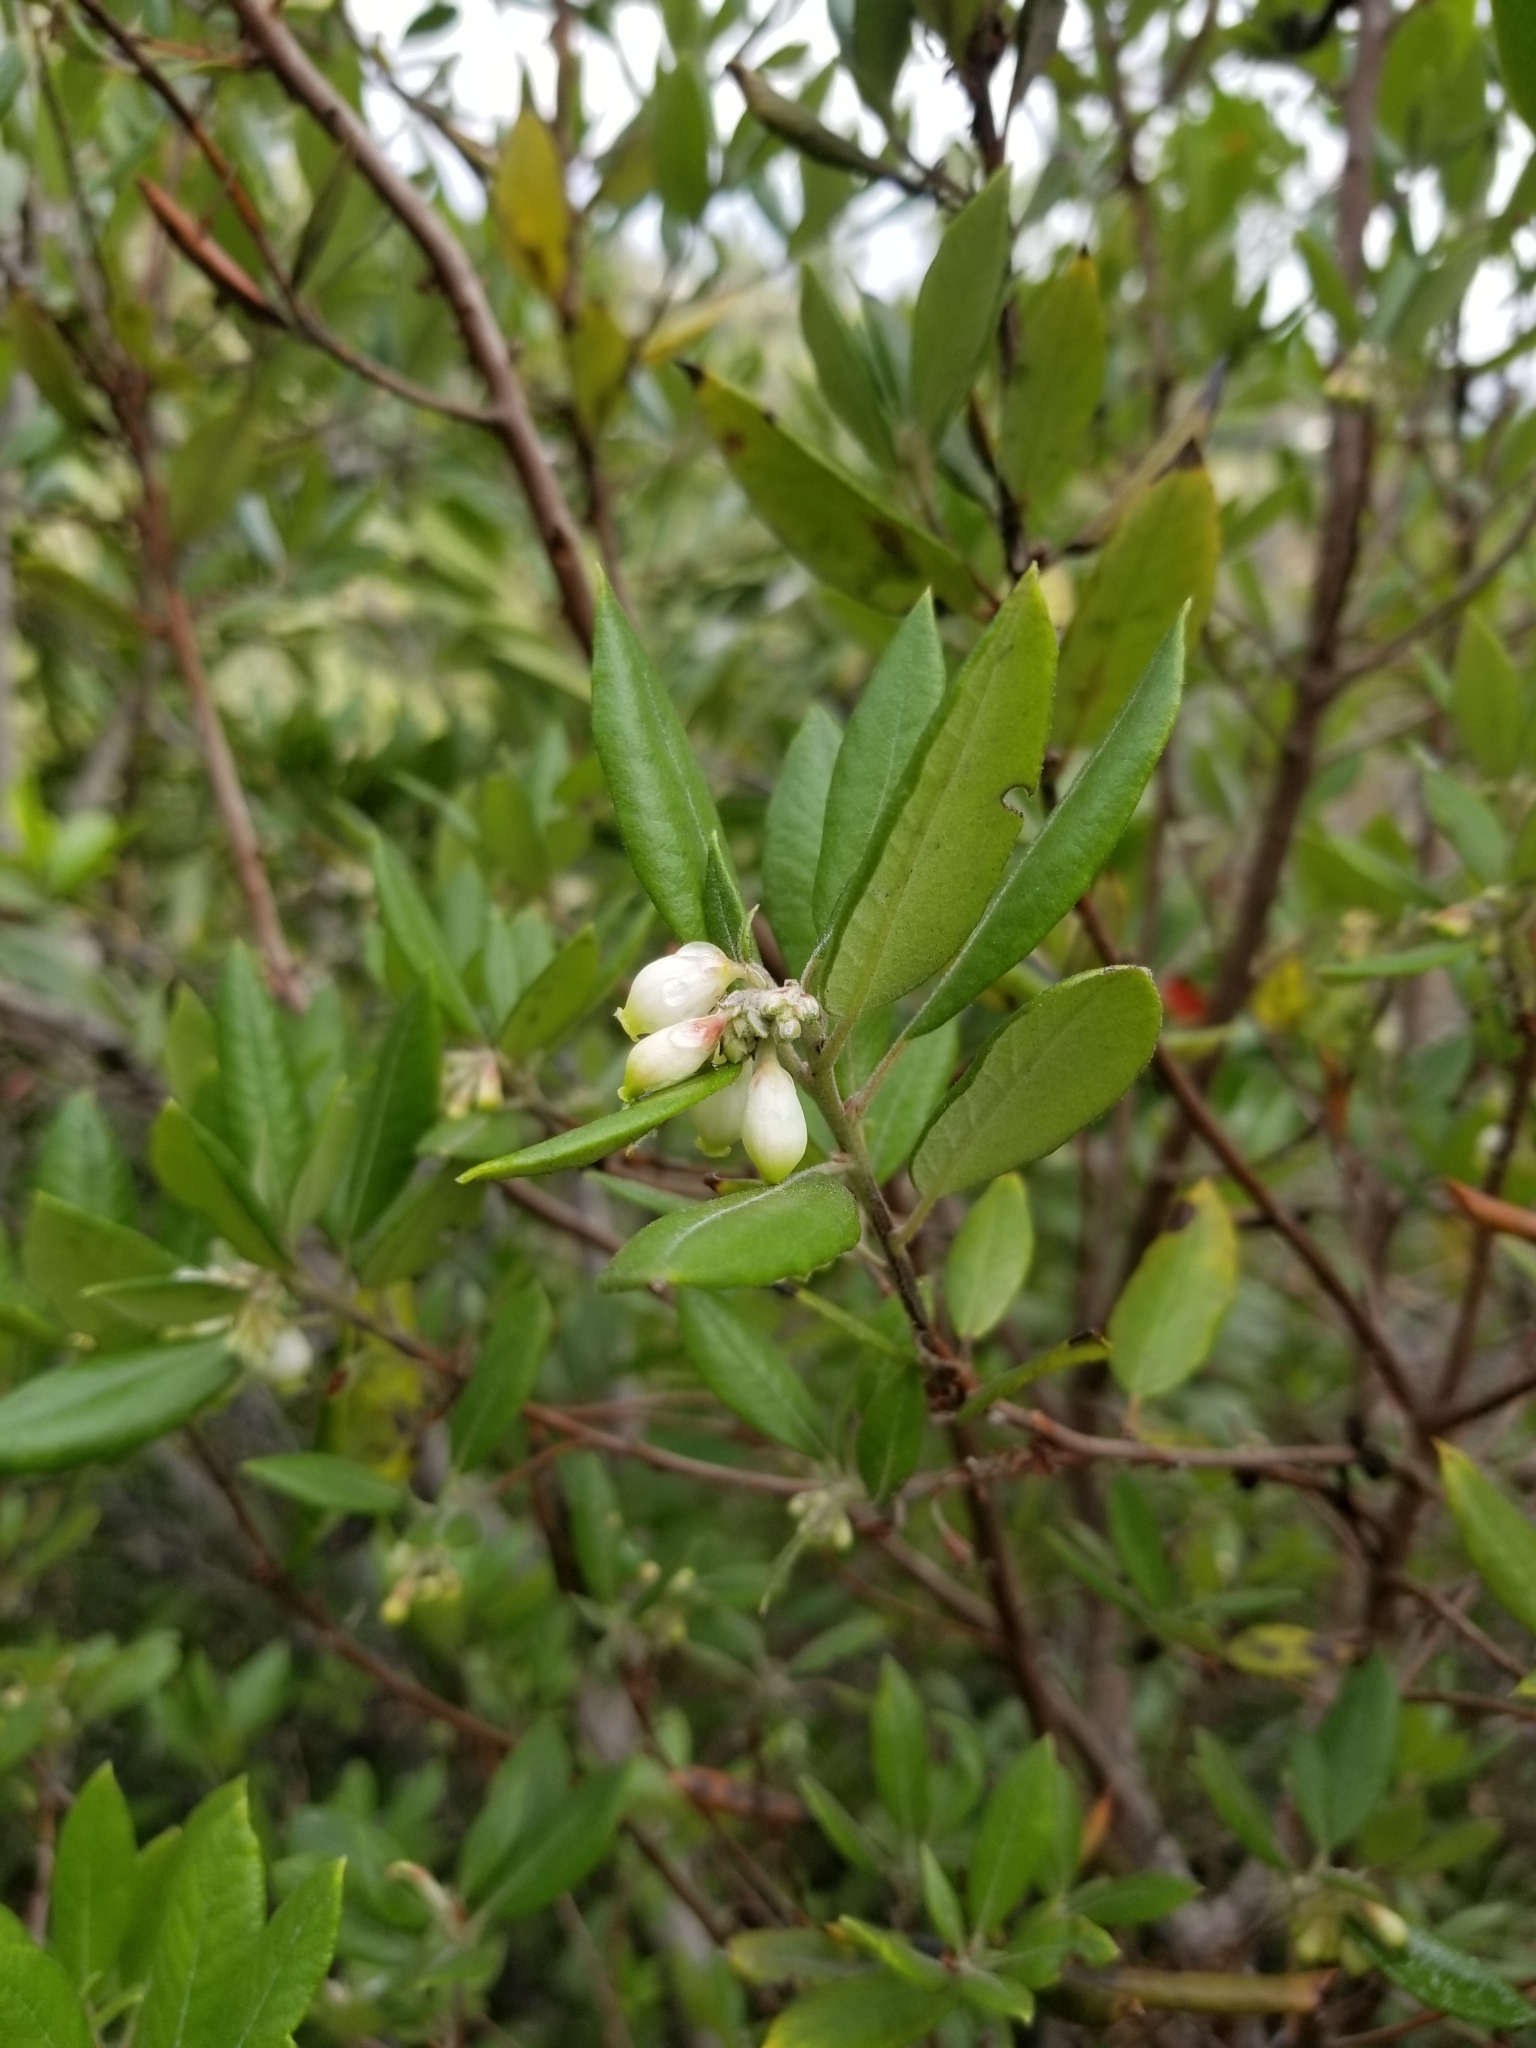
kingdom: Plantae
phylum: Tracheophyta
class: Magnoliopsida
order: Ericales
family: Ericaceae
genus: Arctostaphylos
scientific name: Arctostaphylos bicolor
